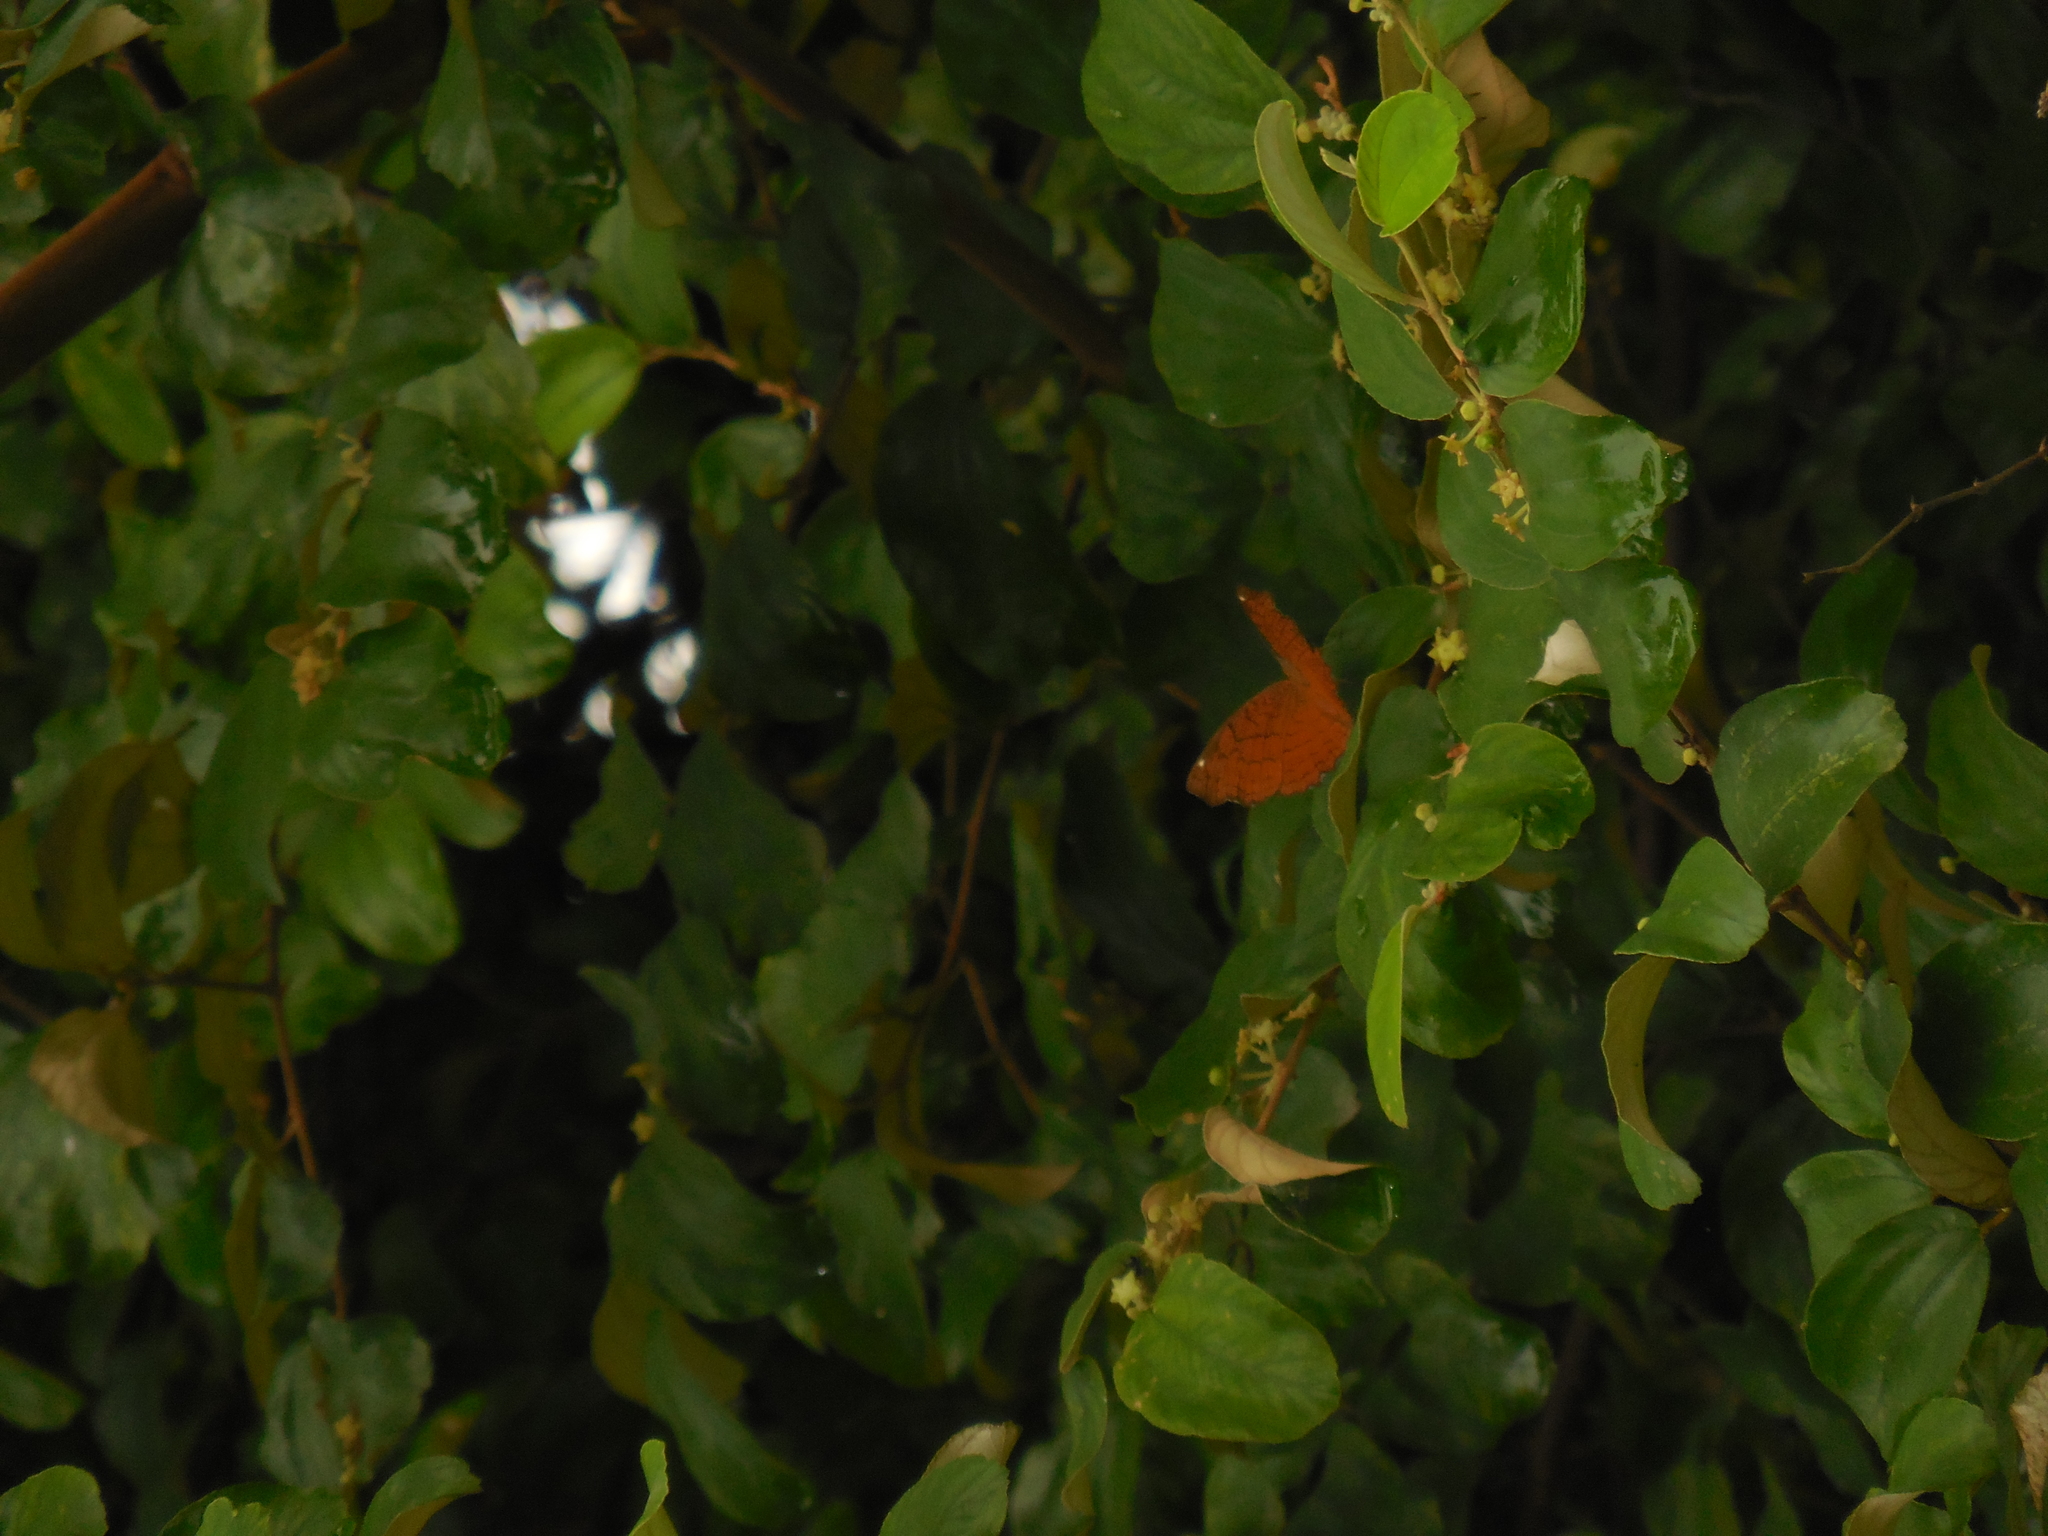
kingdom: Animalia
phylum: Arthropoda
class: Insecta
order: Lepidoptera
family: Nymphalidae
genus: Ariadne
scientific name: Ariadne ariadne
